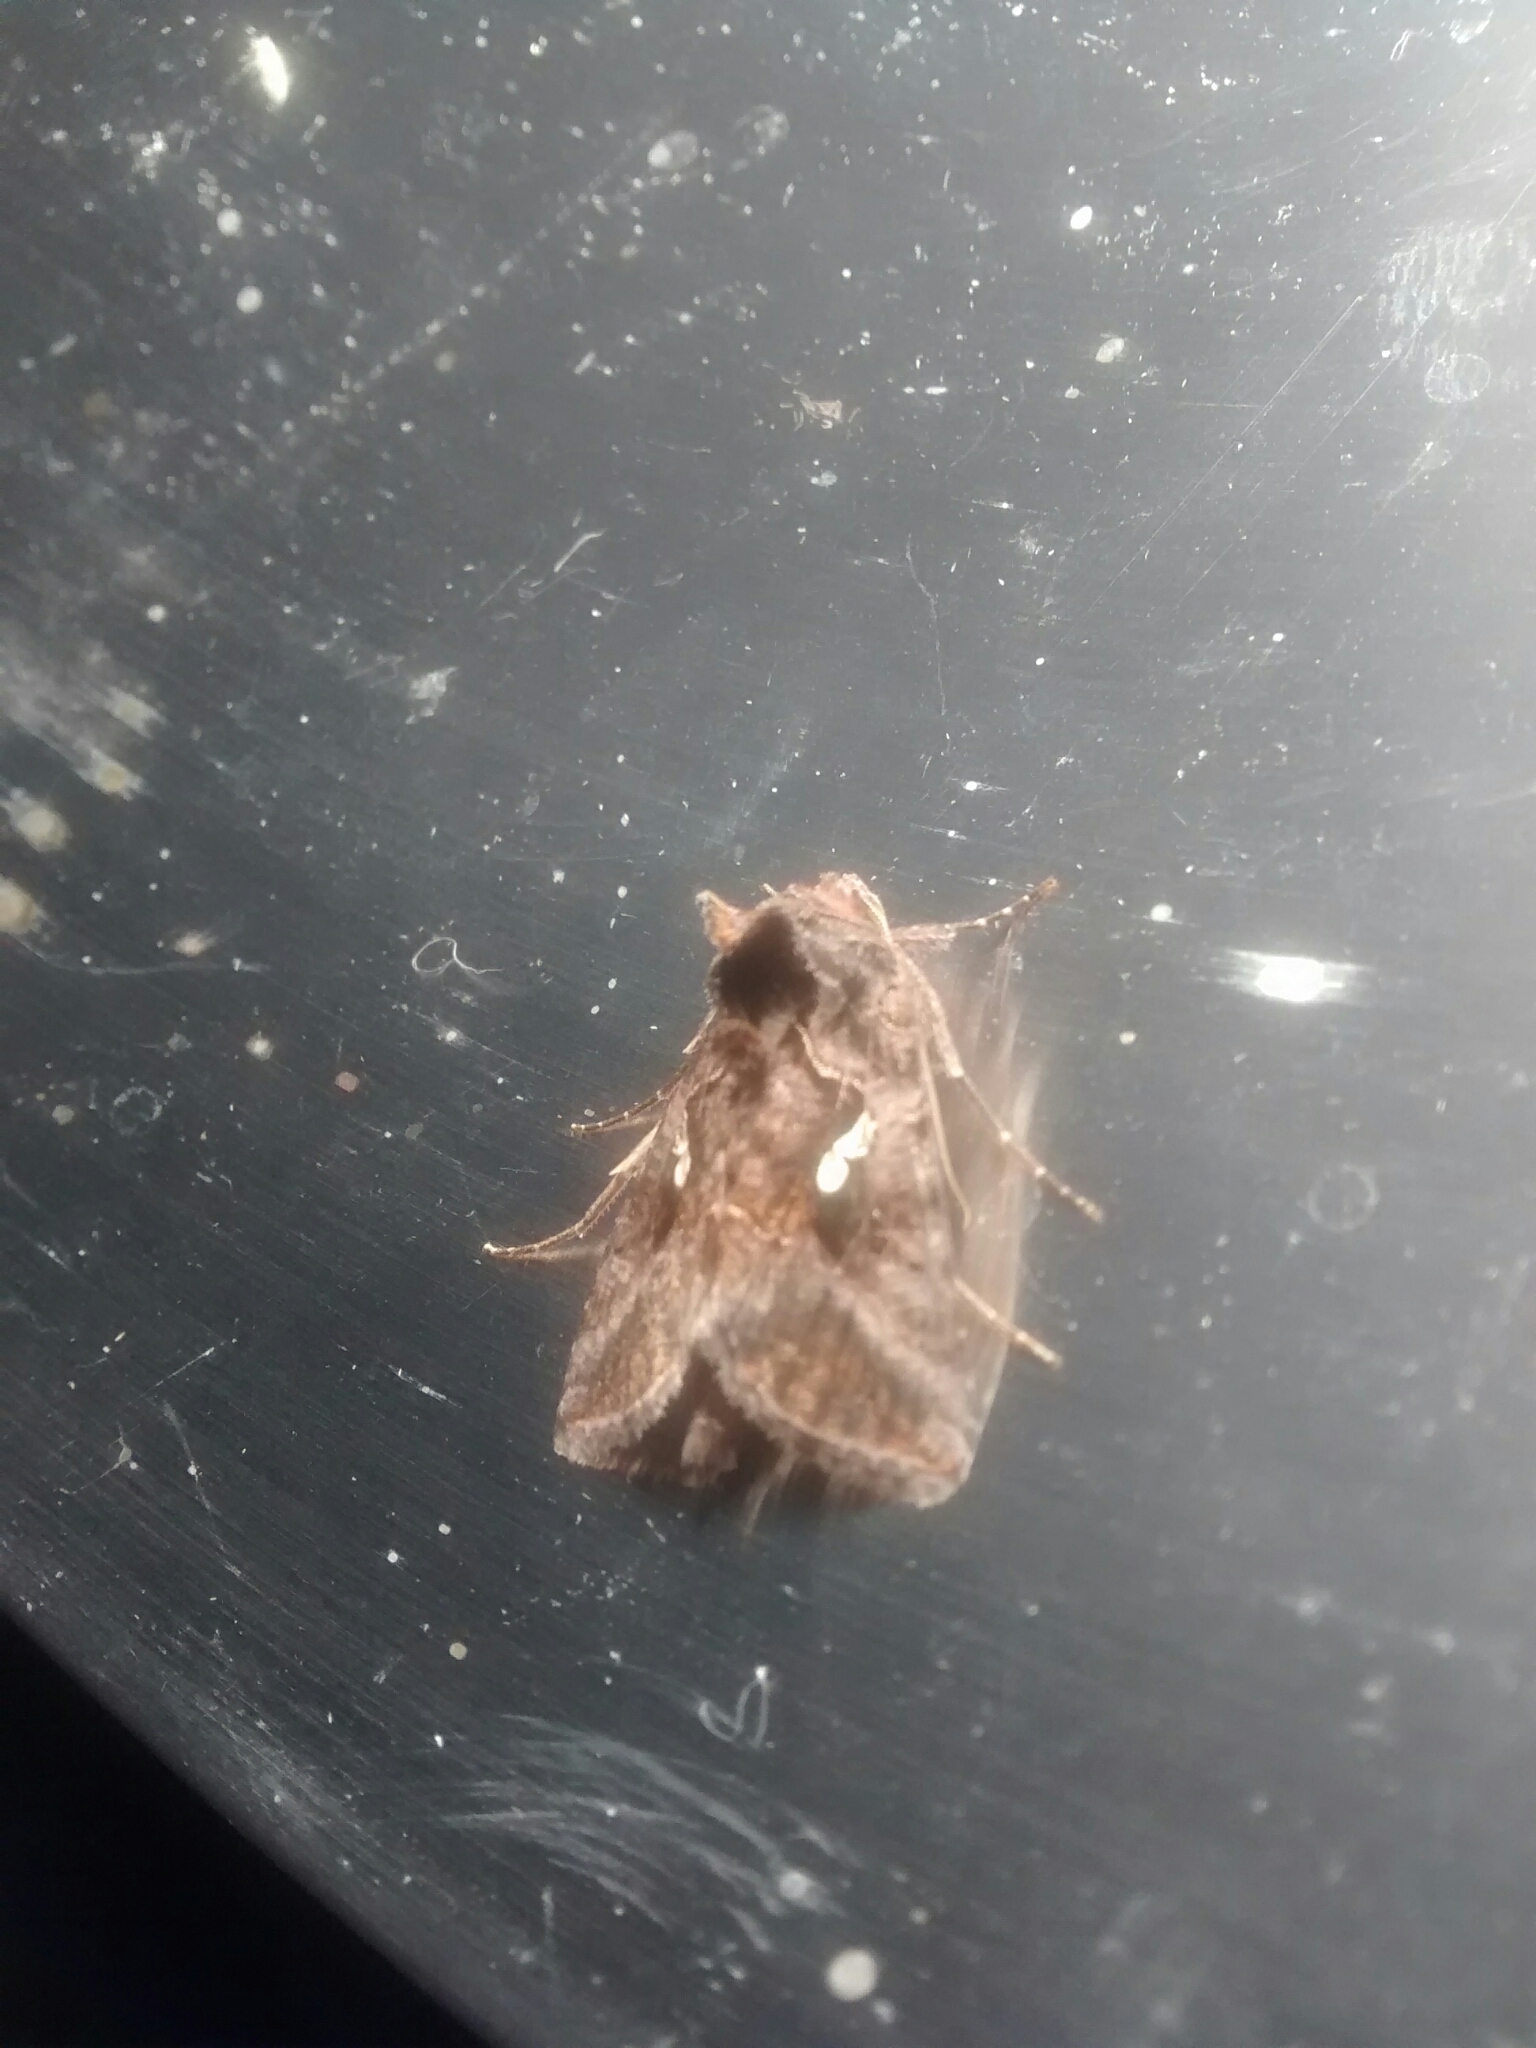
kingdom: Animalia
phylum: Arthropoda
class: Insecta
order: Lepidoptera
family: Noctuidae
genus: Autographa
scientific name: Autographa precationis
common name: Common looper moth
